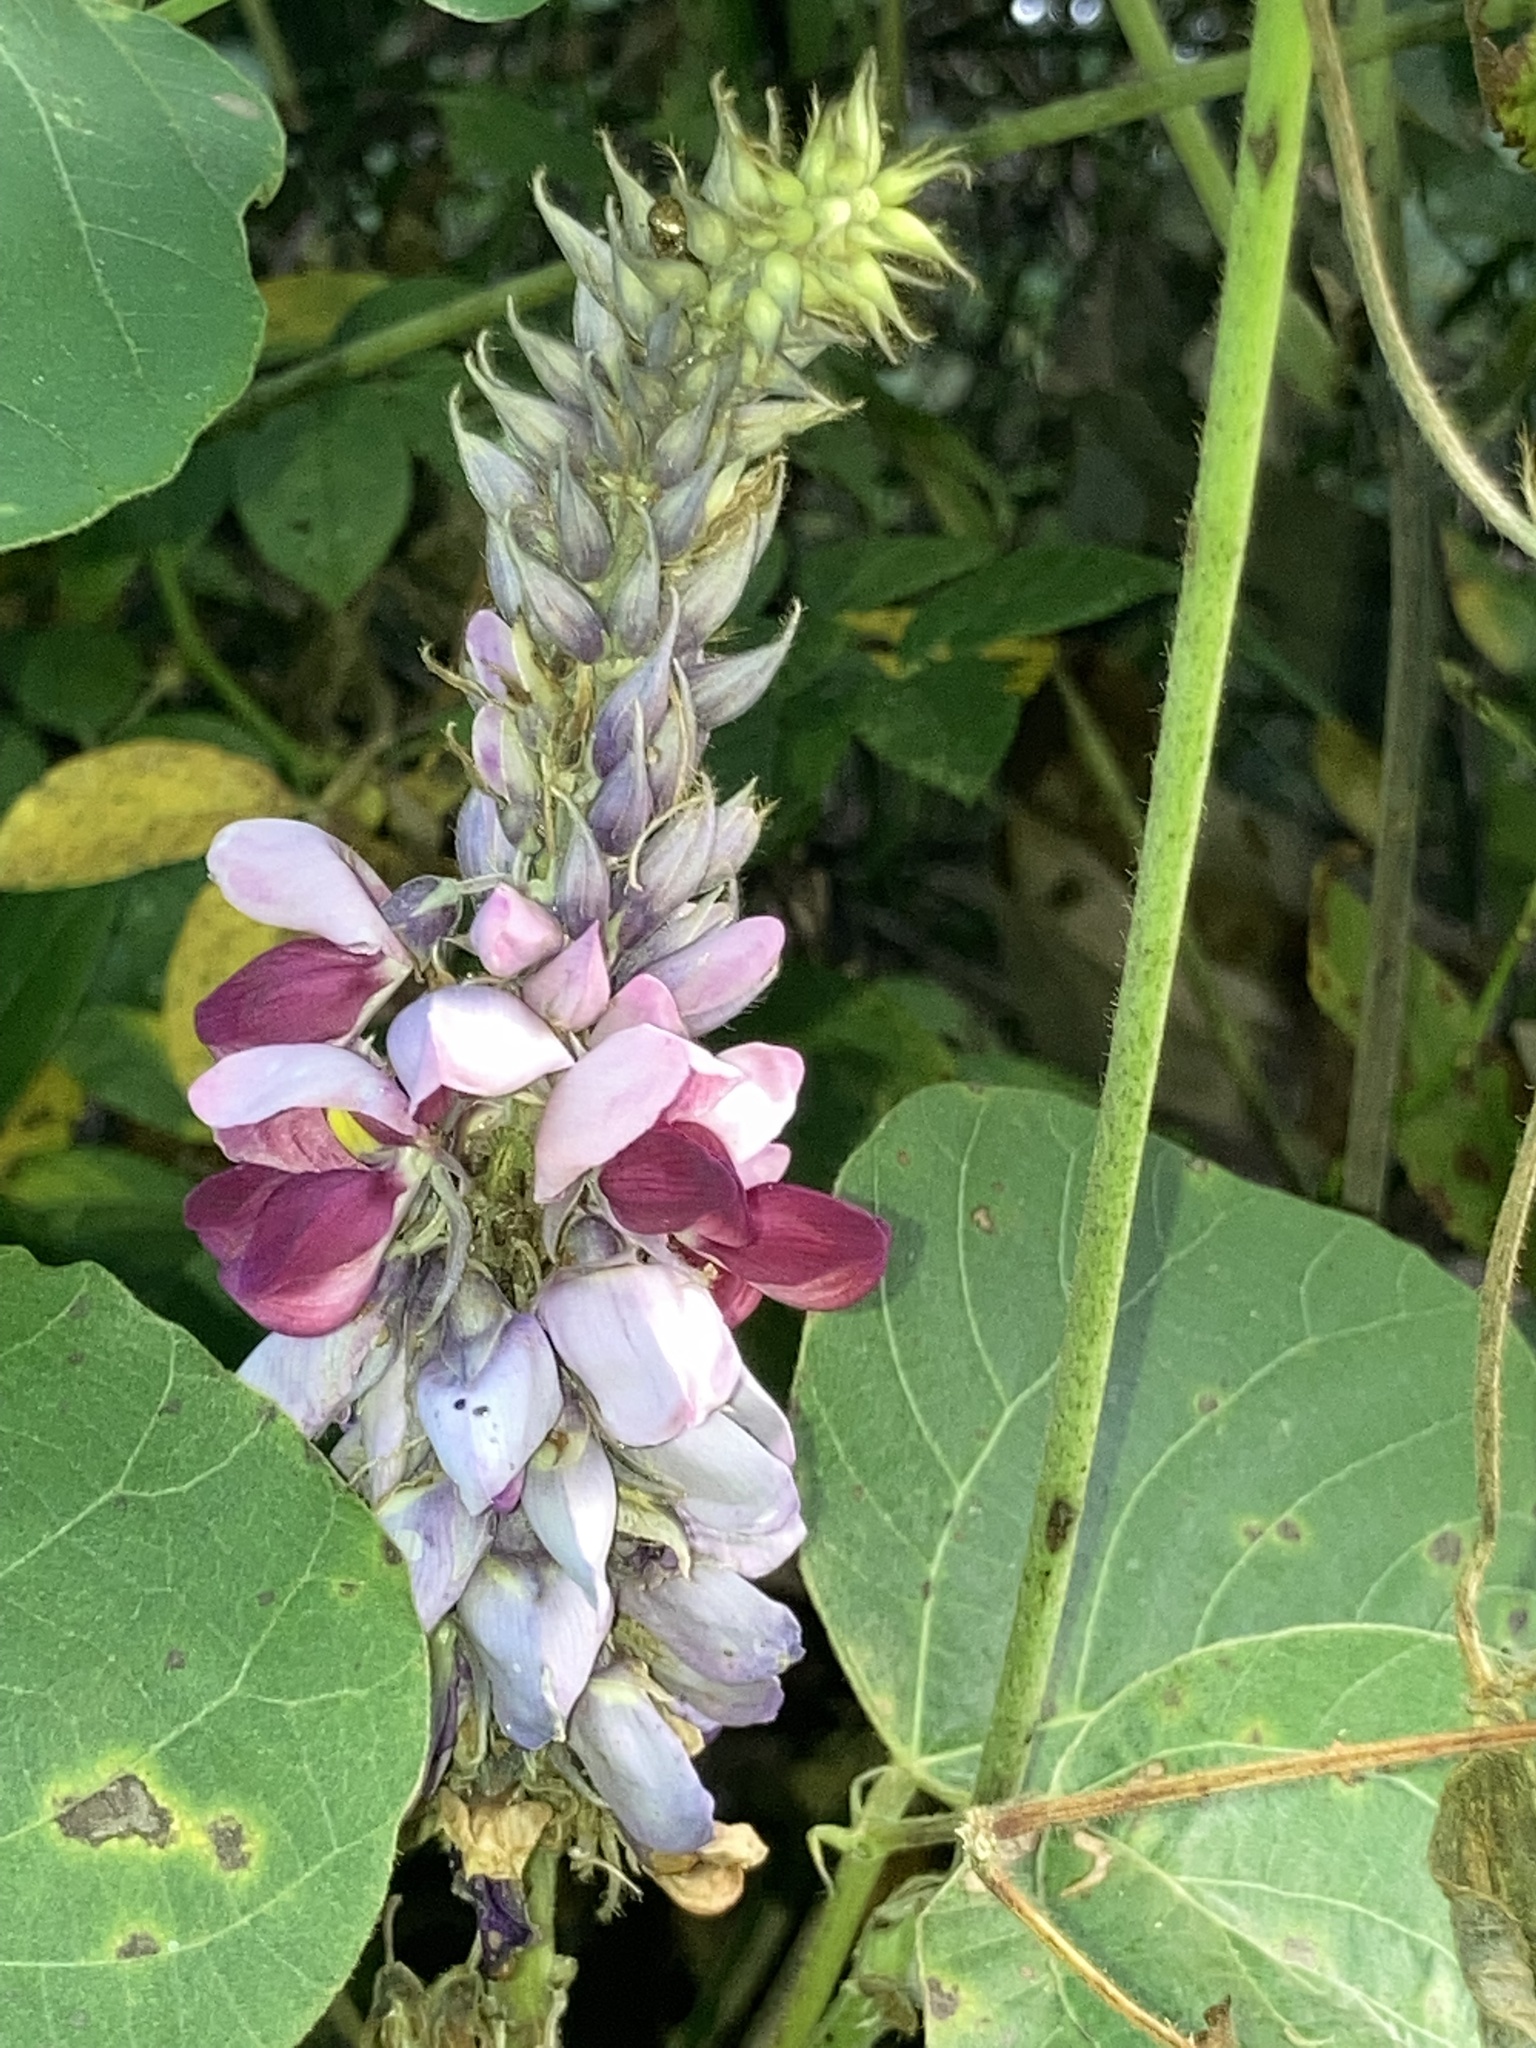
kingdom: Plantae
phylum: Tracheophyta
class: Magnoliopsida
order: Fabales
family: Fabaceae
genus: Pueraria
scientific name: Pueraria montana
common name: Kudzu
